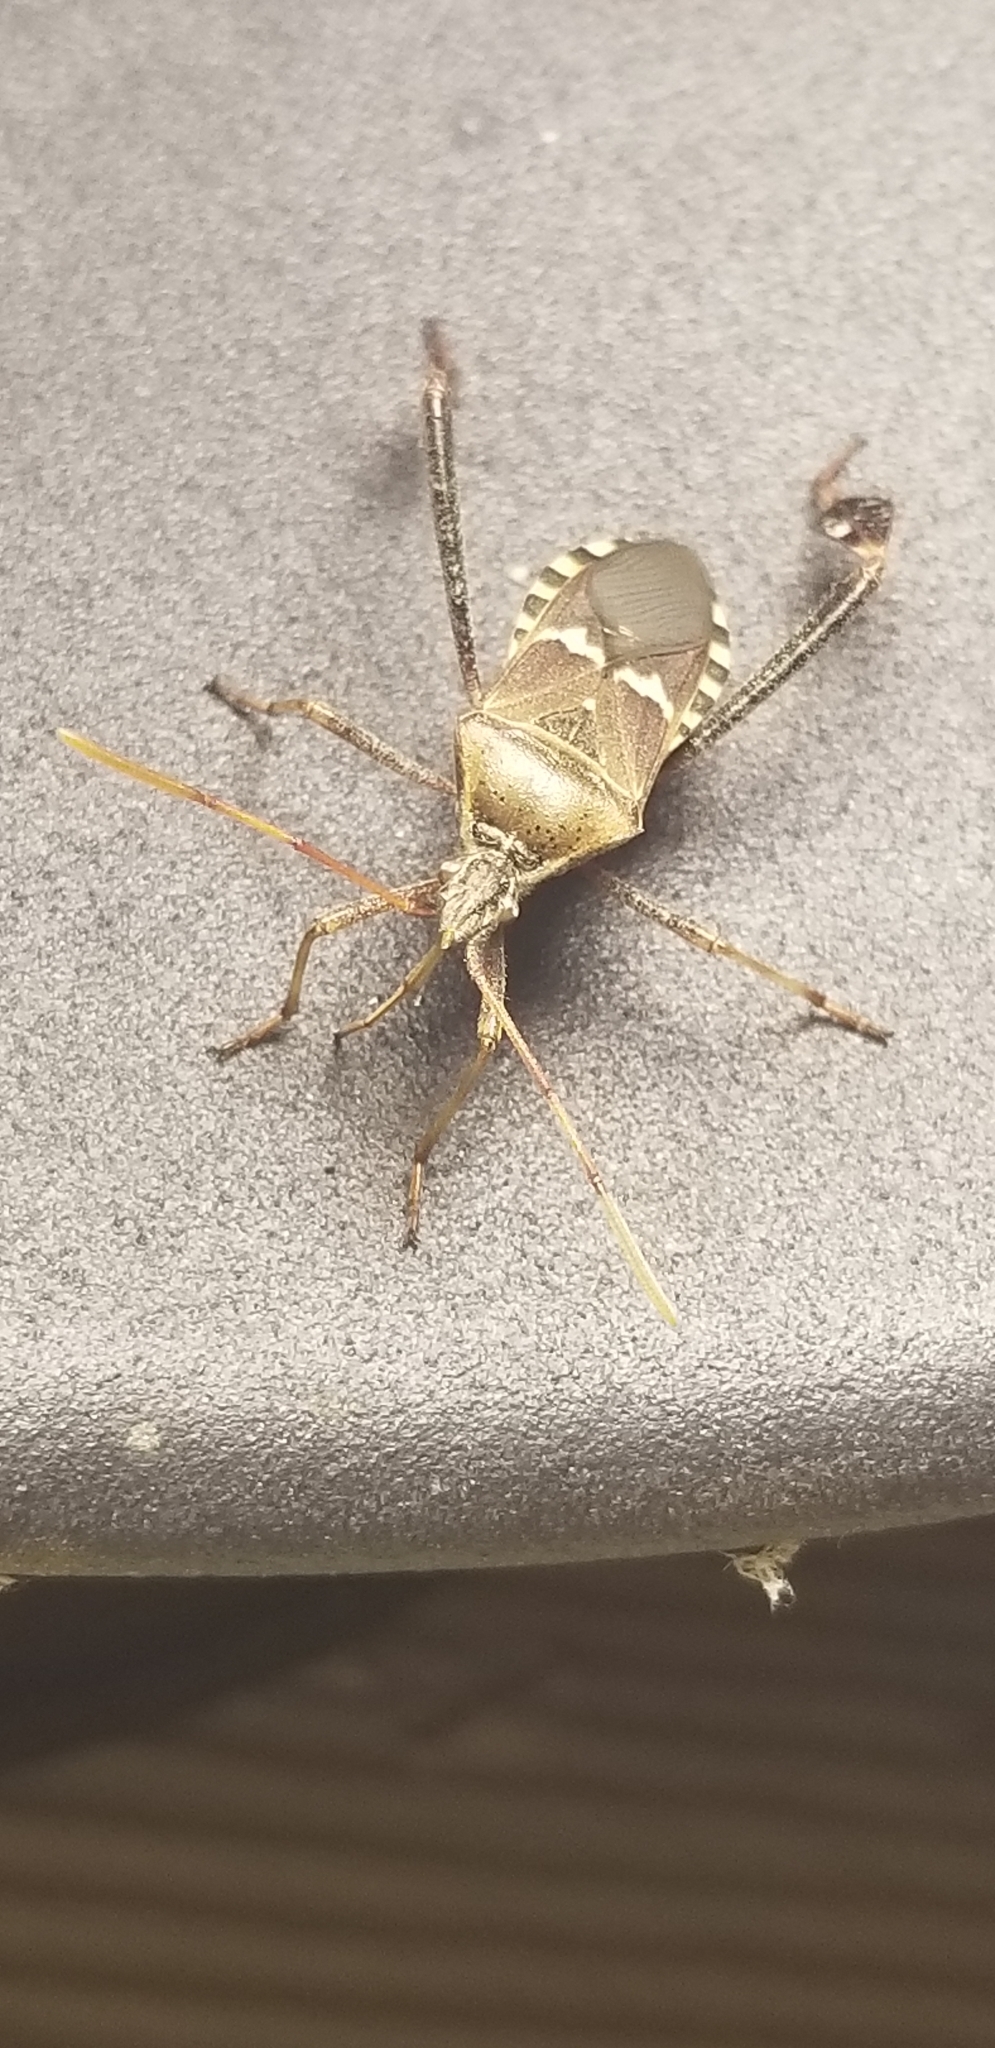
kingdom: Animalia
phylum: Arthropoda
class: Insecta
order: Hemiptera
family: Coreidae
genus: Leptoglossus
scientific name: Leptoglossus clypealis
